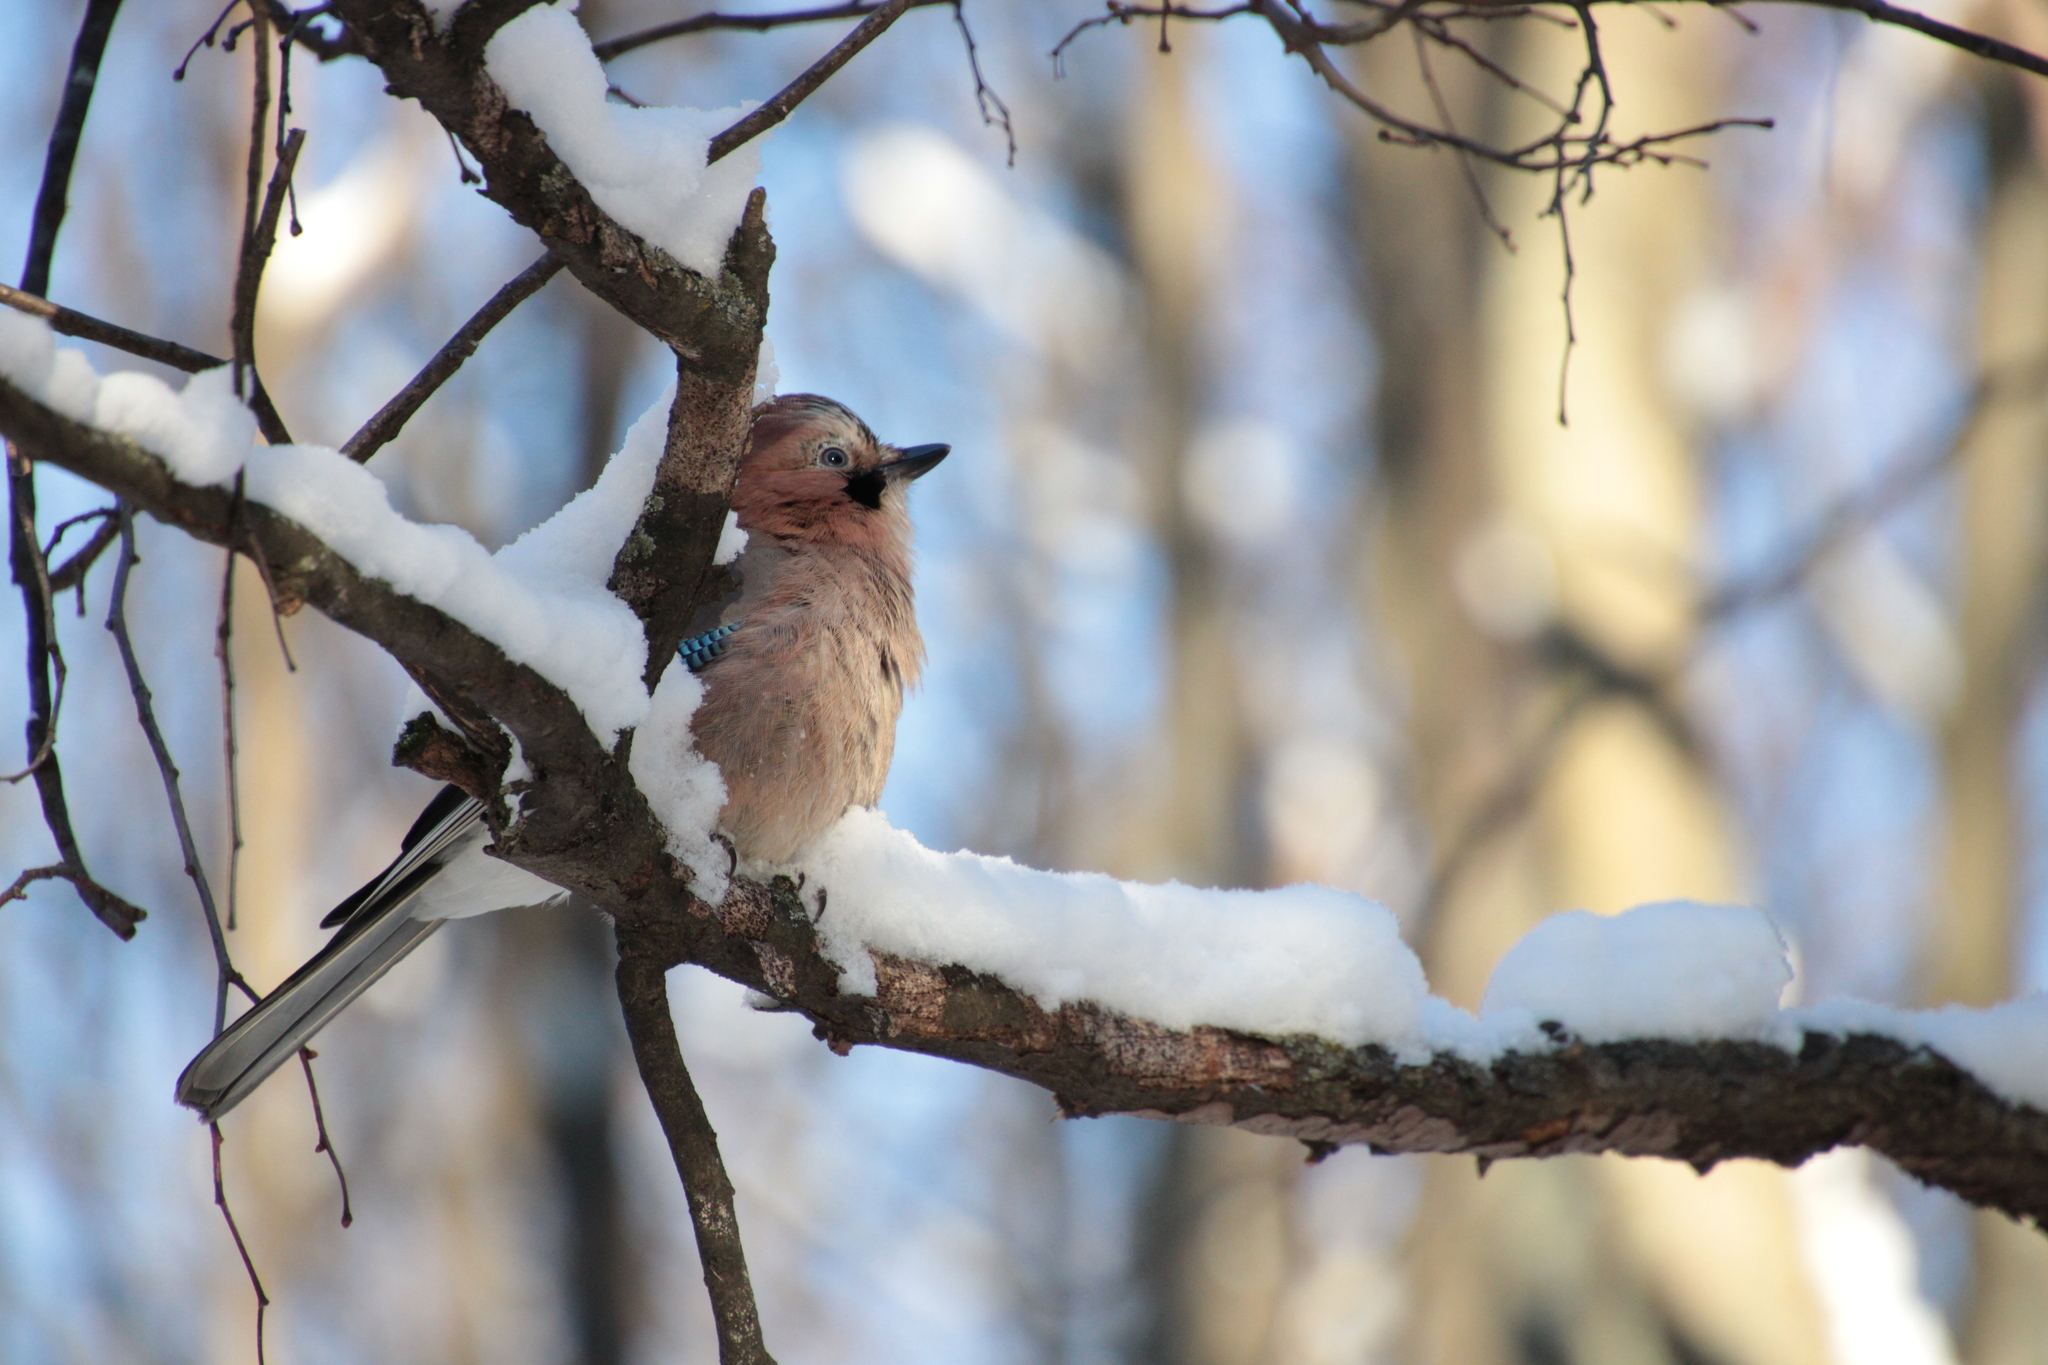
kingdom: Animalia
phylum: Chordata
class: Aves
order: Passeriformes
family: Corvidae
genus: Garrulus
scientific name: Garrulus glandarius
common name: Eurasian jay
